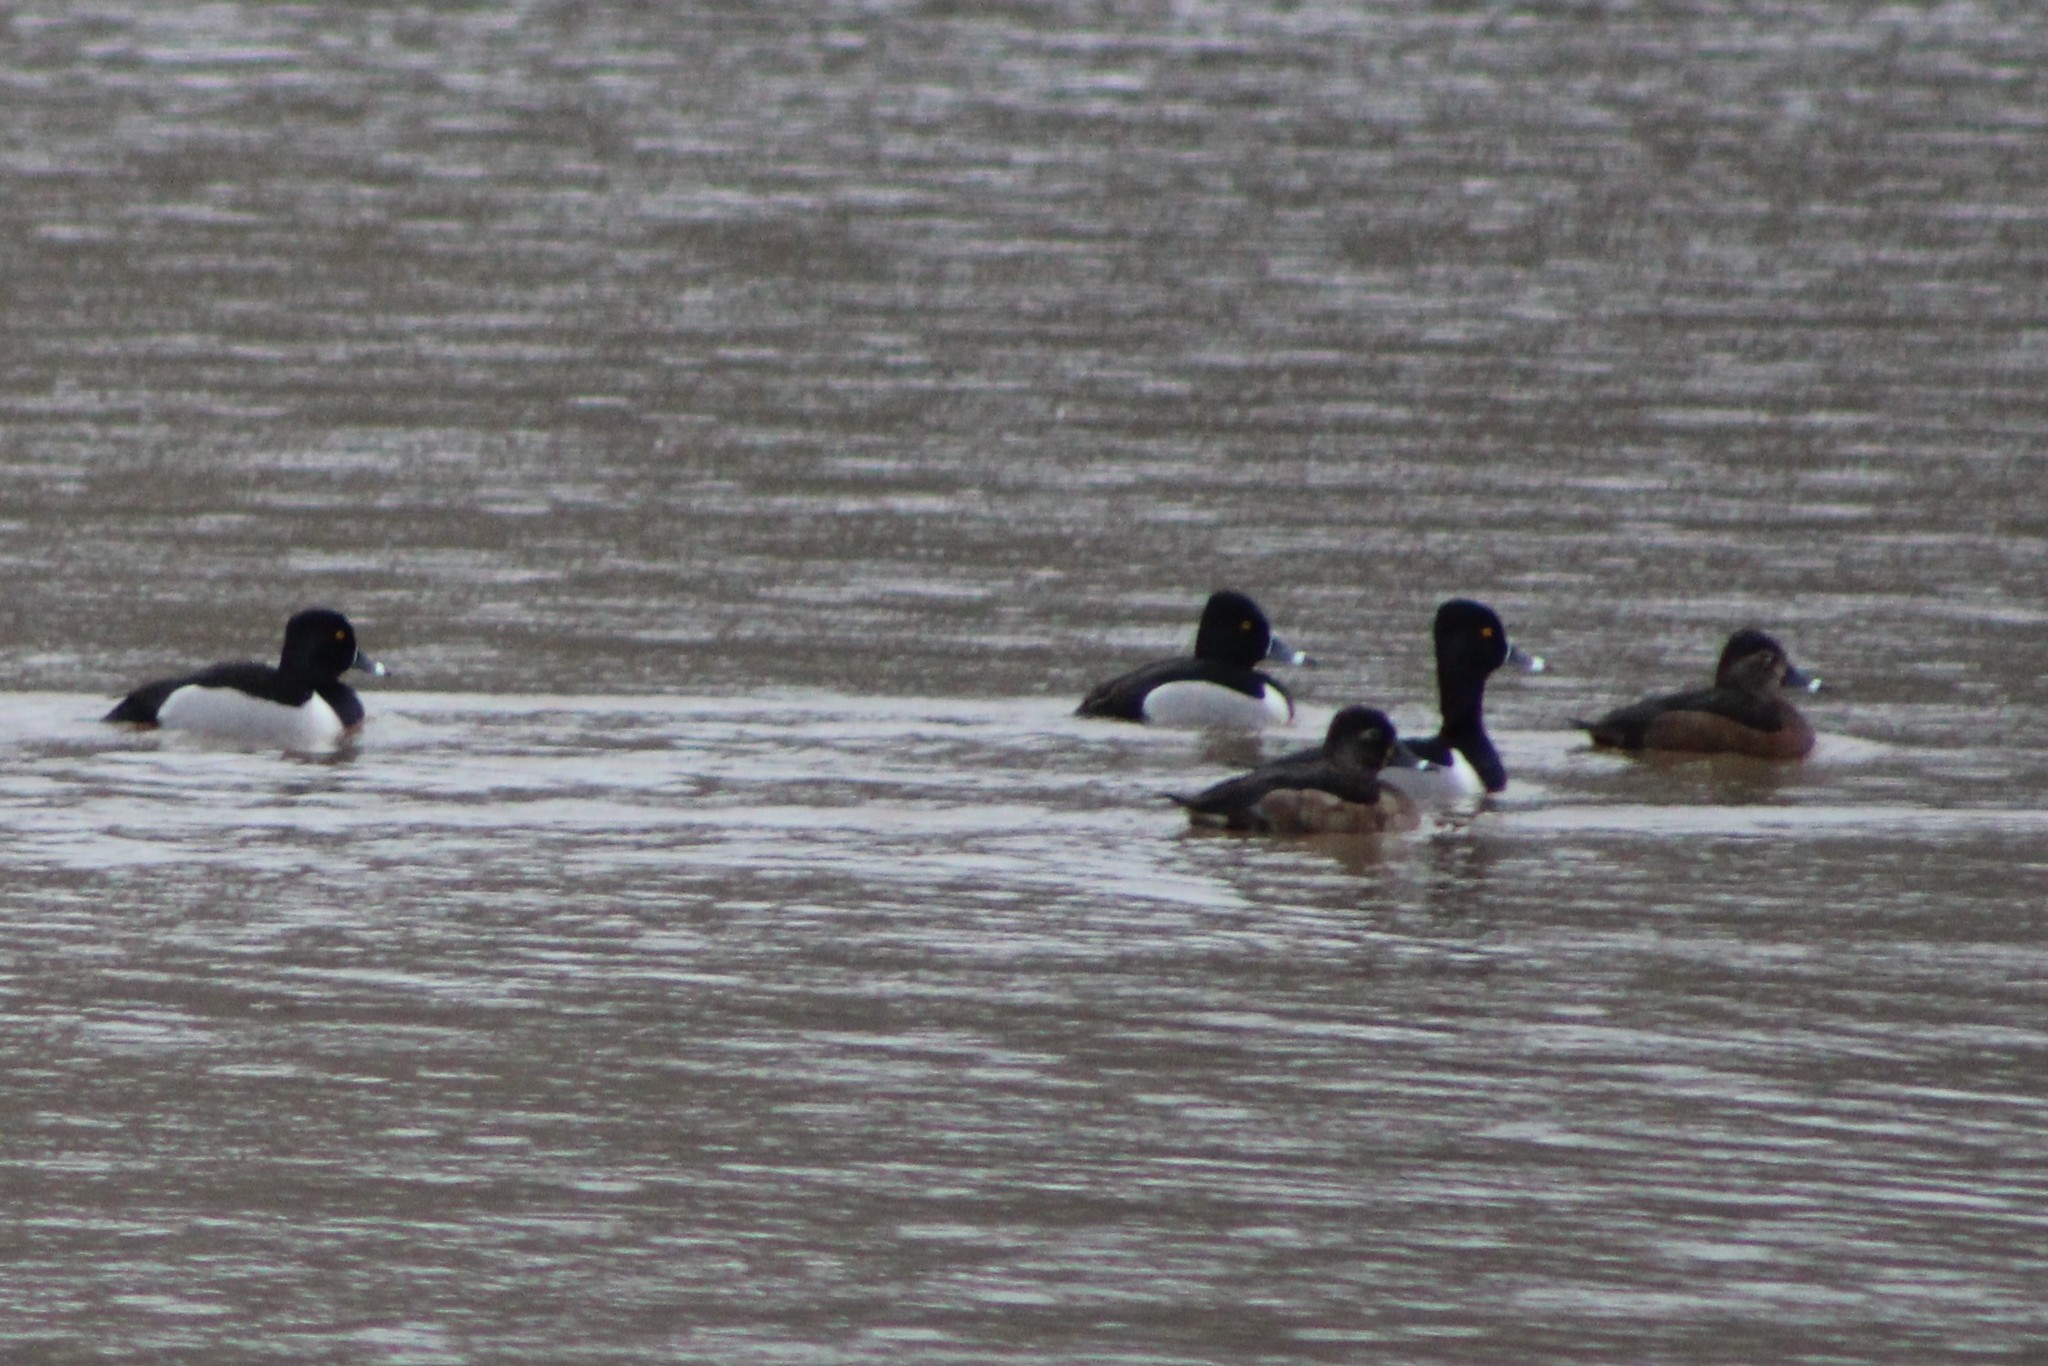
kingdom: Animalia
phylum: Chordata
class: Aves
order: Anseriformes
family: Anatidae
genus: Aythya
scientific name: Aythya collaris
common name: Ring-necked duck
